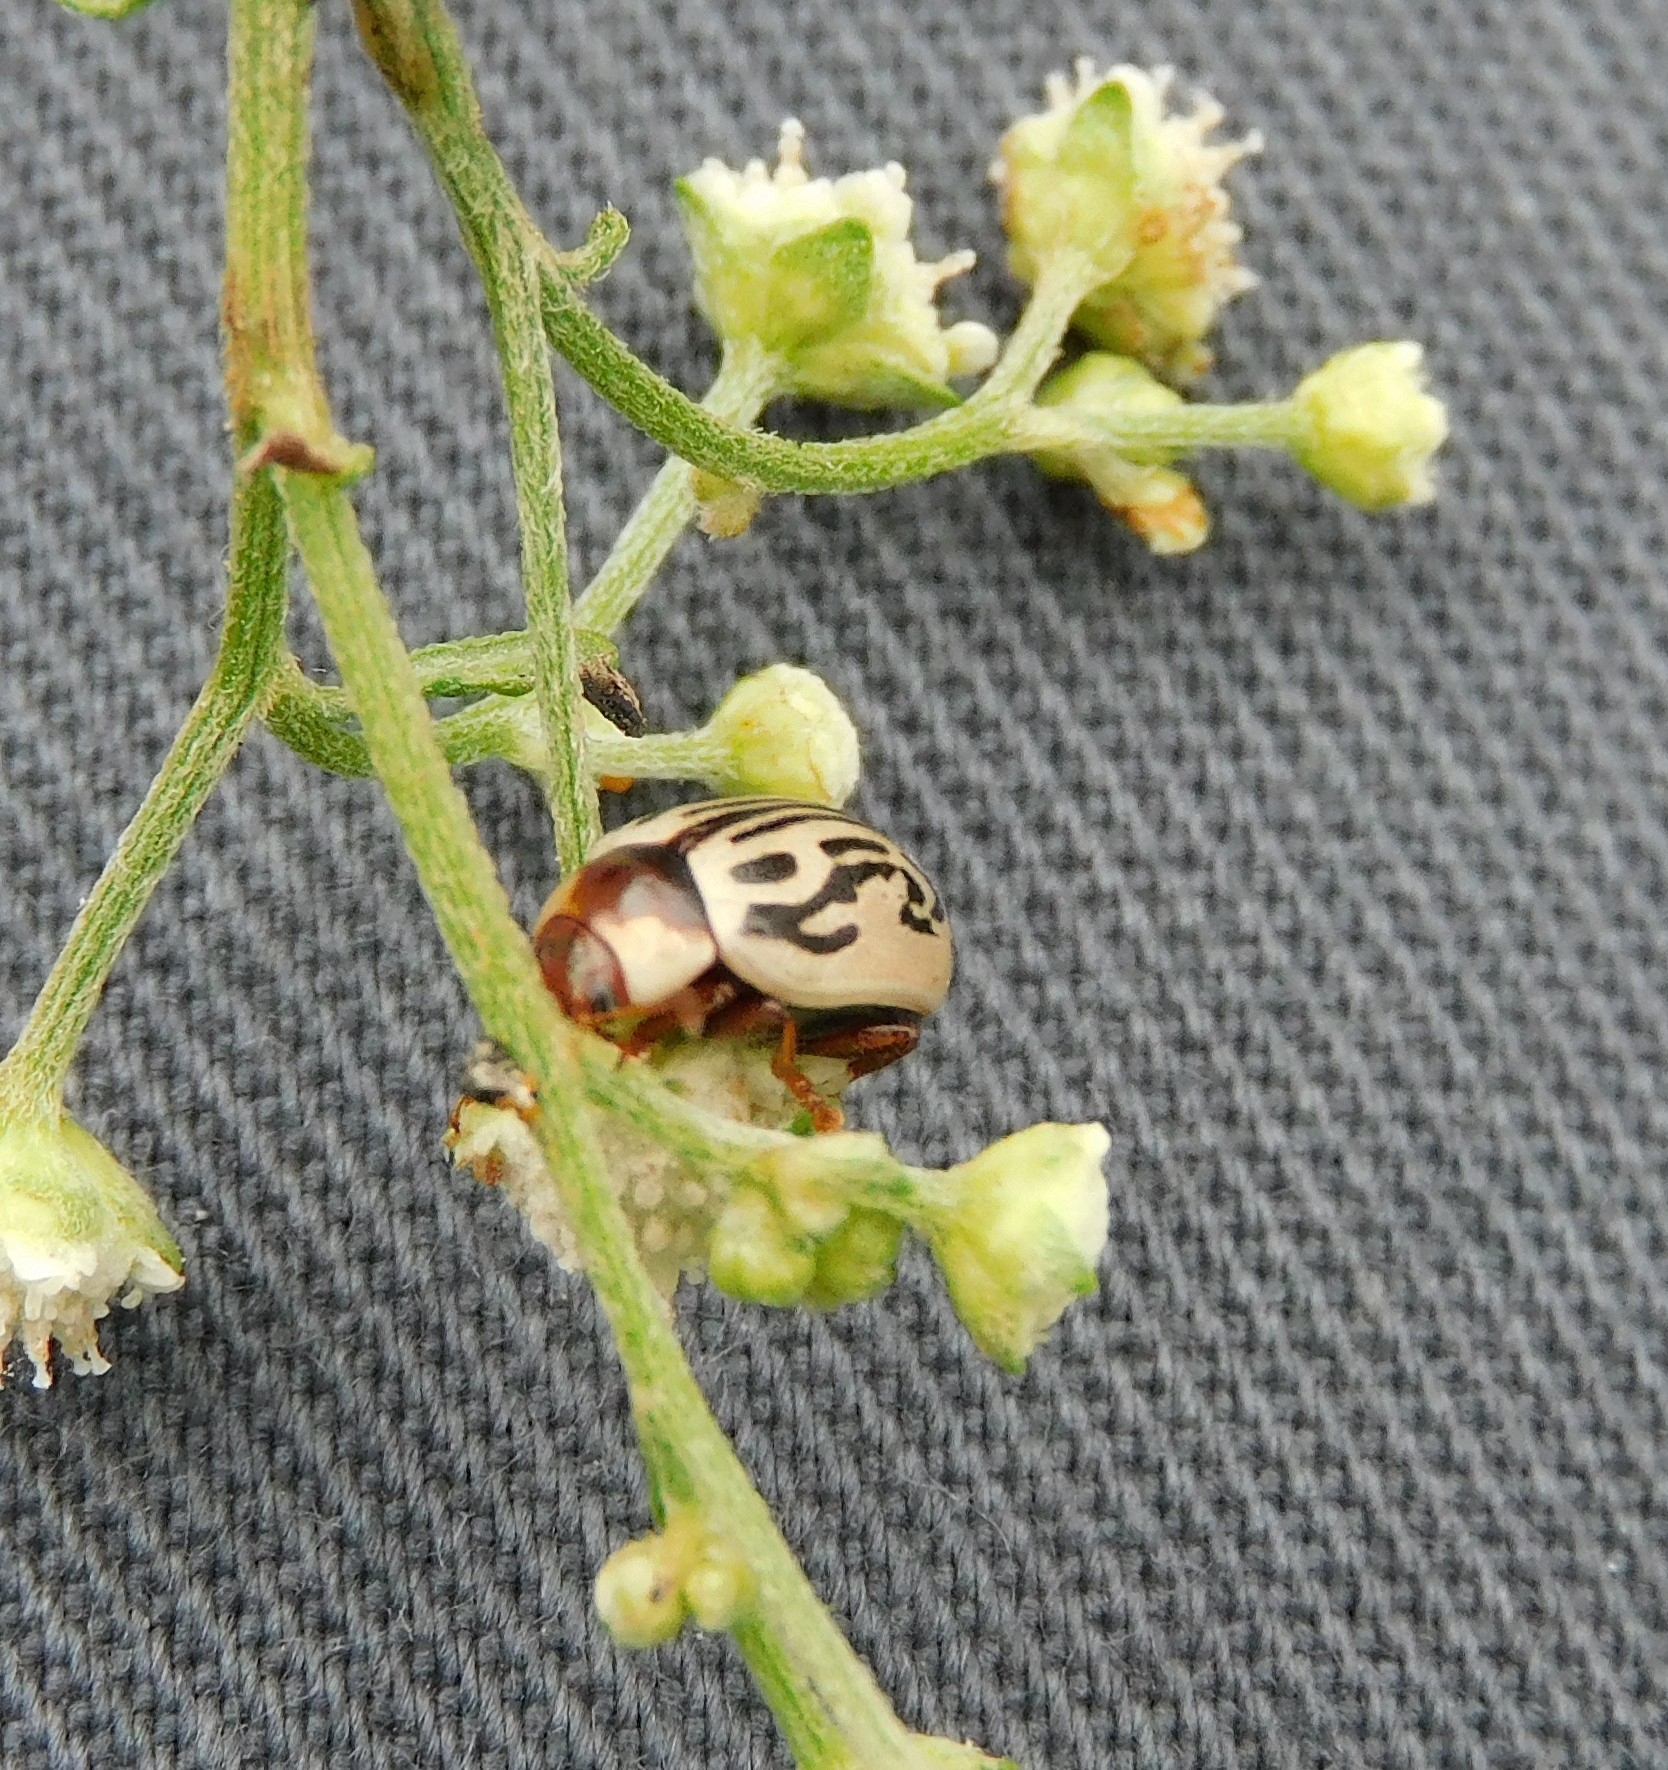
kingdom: Animalia
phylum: Arthropoda
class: Insecta
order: Coleoptera
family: Chrysomelidae
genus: Calligrapha
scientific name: Calligrapha
